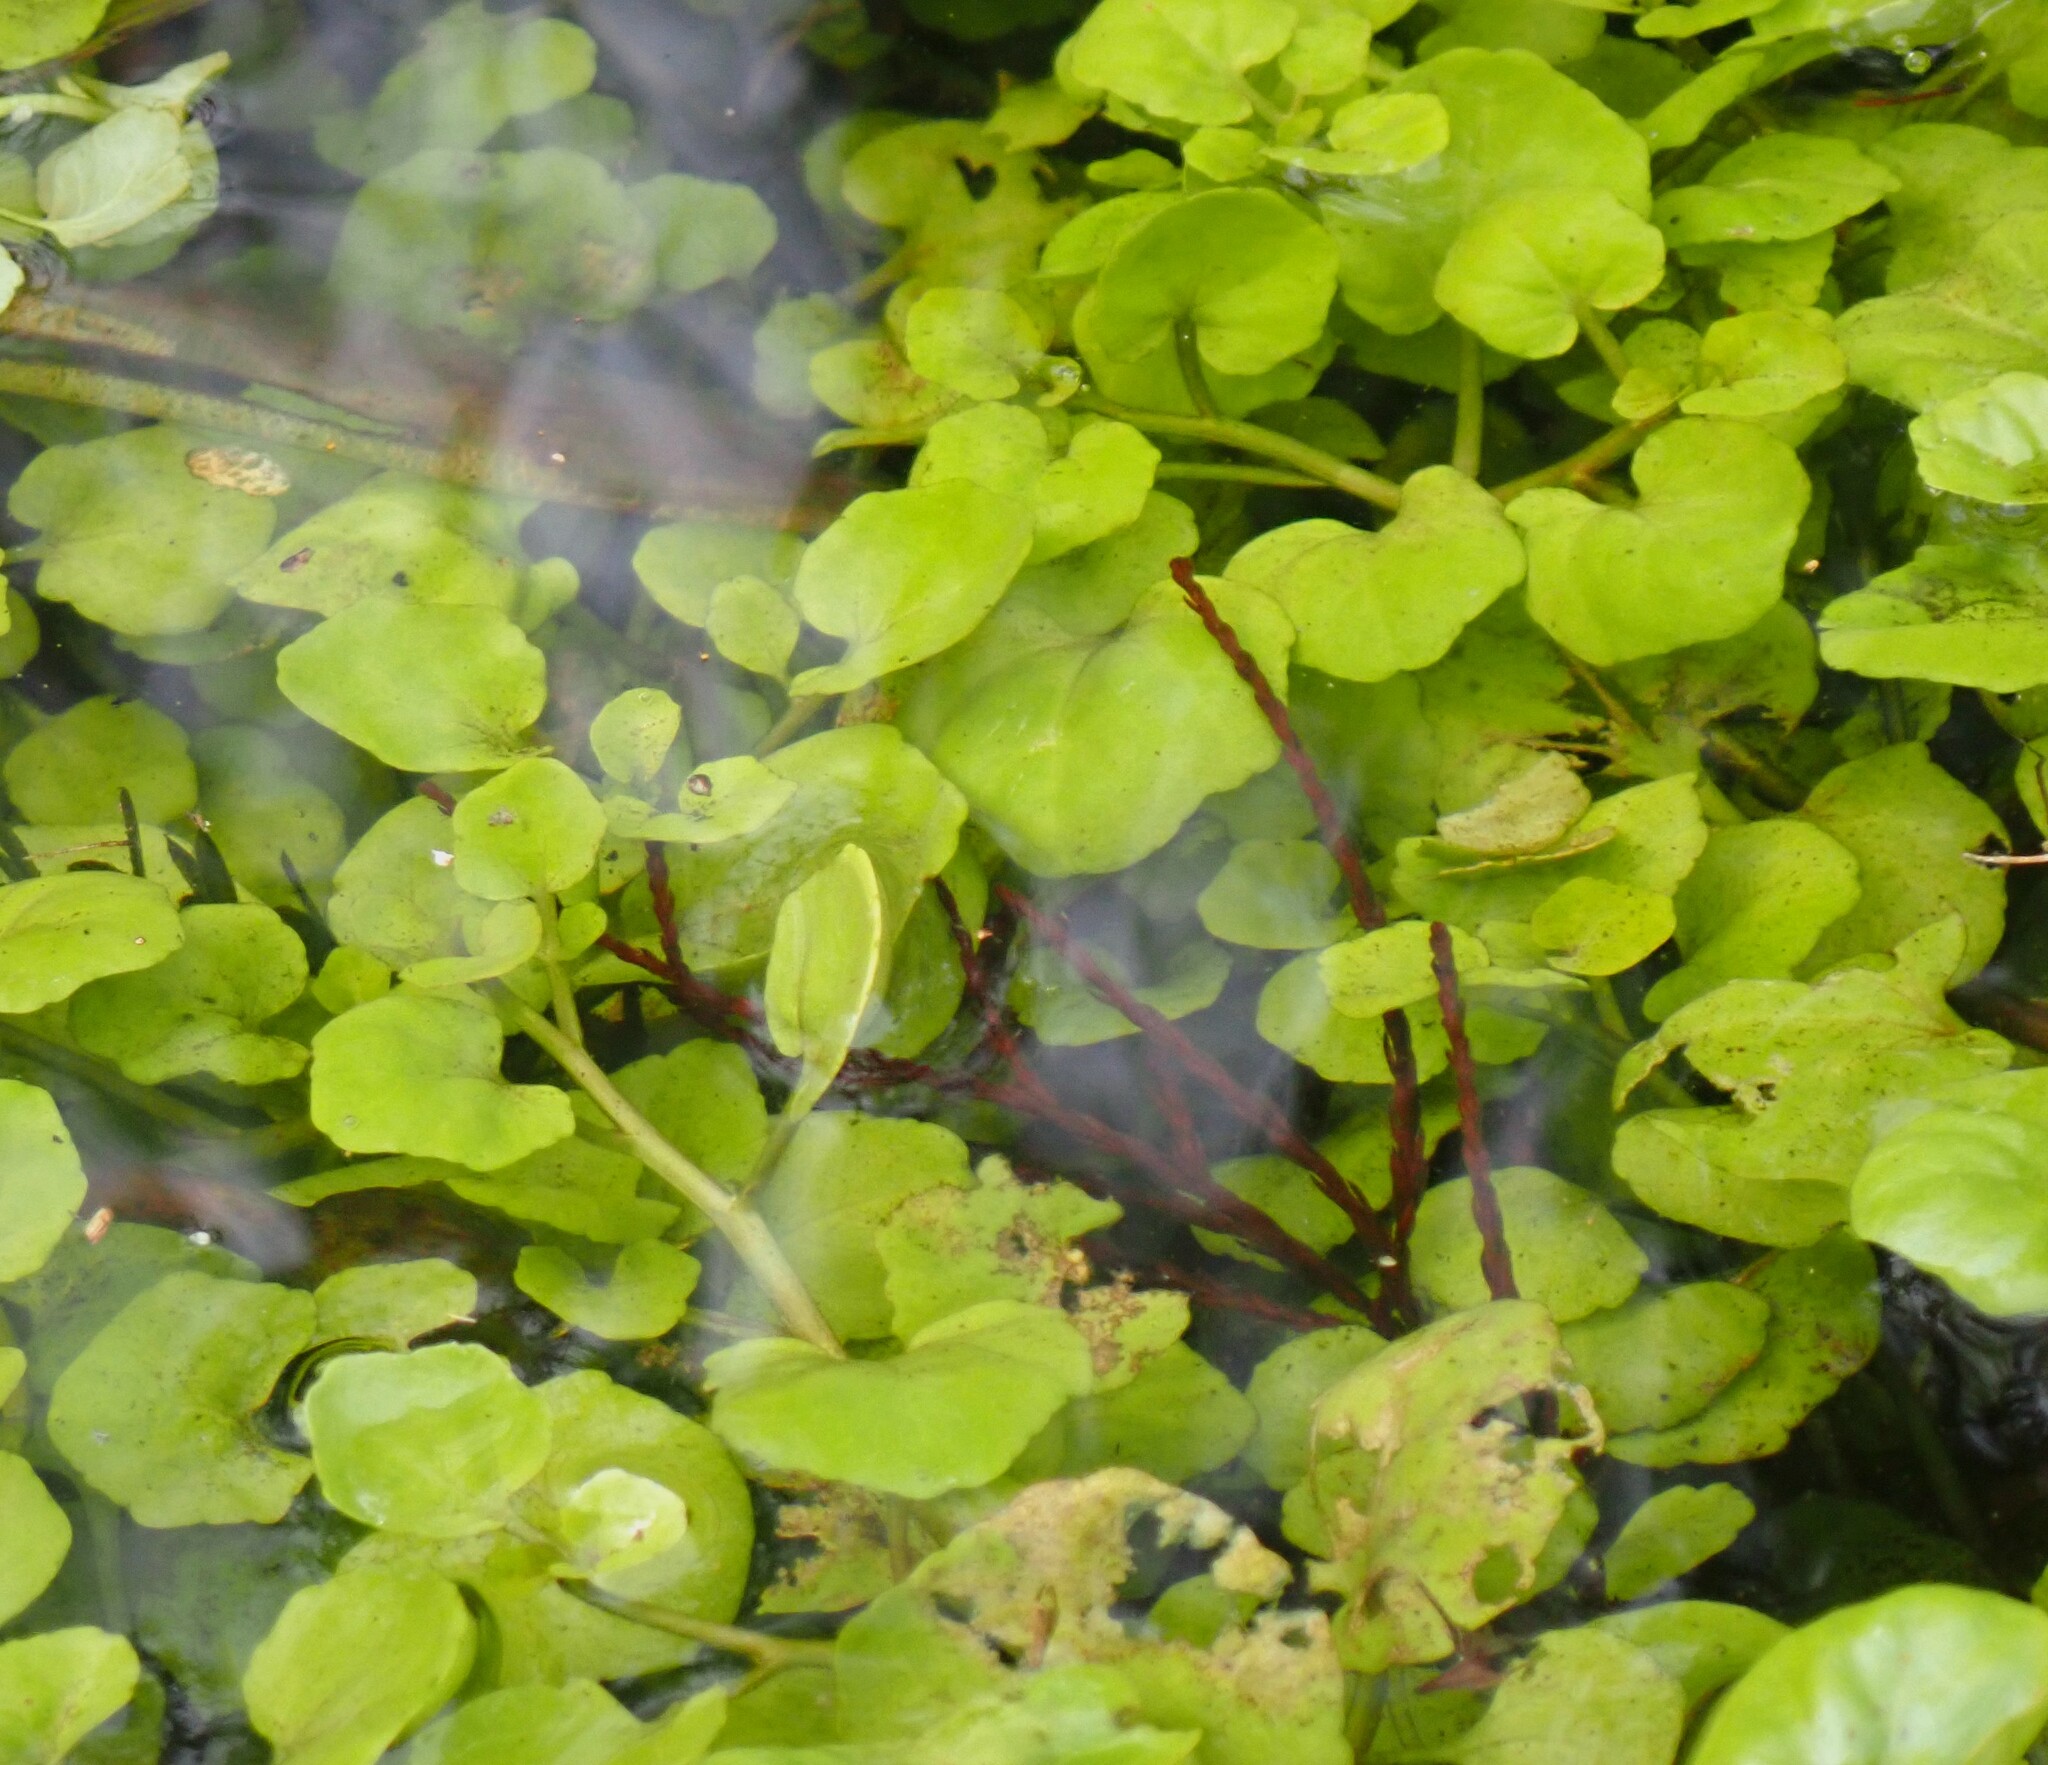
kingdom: Plantae
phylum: Tracheophyta
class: Magnoliopsida
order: Brassicales
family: Brassicaceae
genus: Nasturtium
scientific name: Nasturtium floridanum
